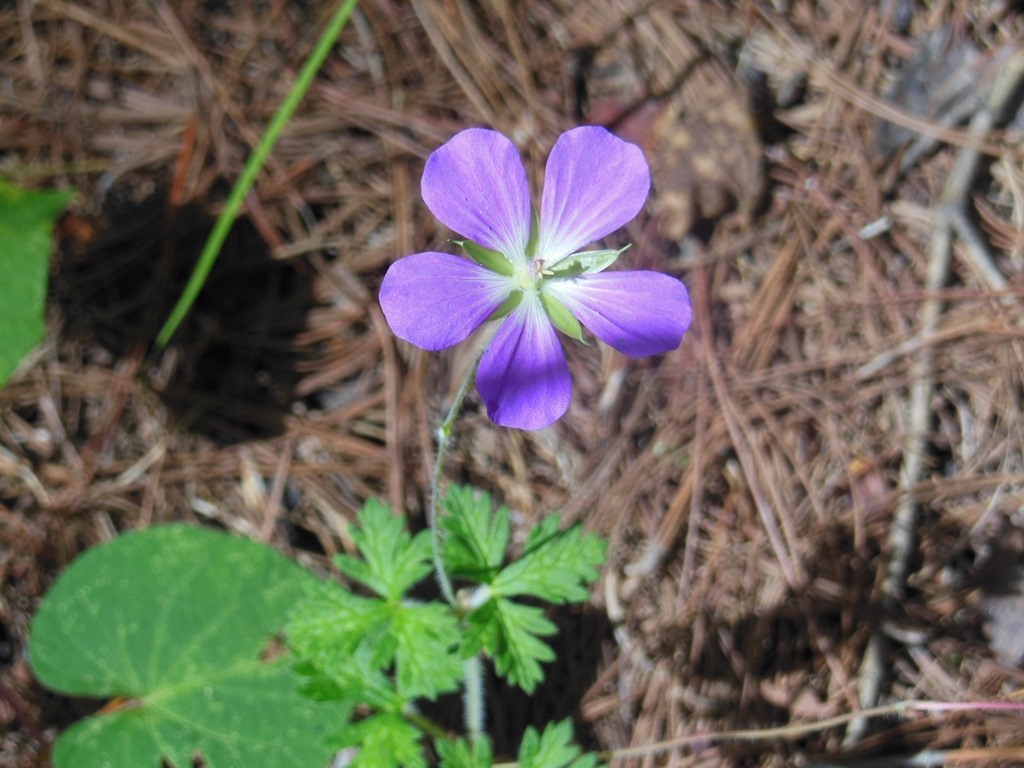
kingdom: Plantae
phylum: Tracheophyta
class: Magnoliopsida
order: Geraniales
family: Geraniaceae
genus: Geranium
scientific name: Geranium goldmanii
